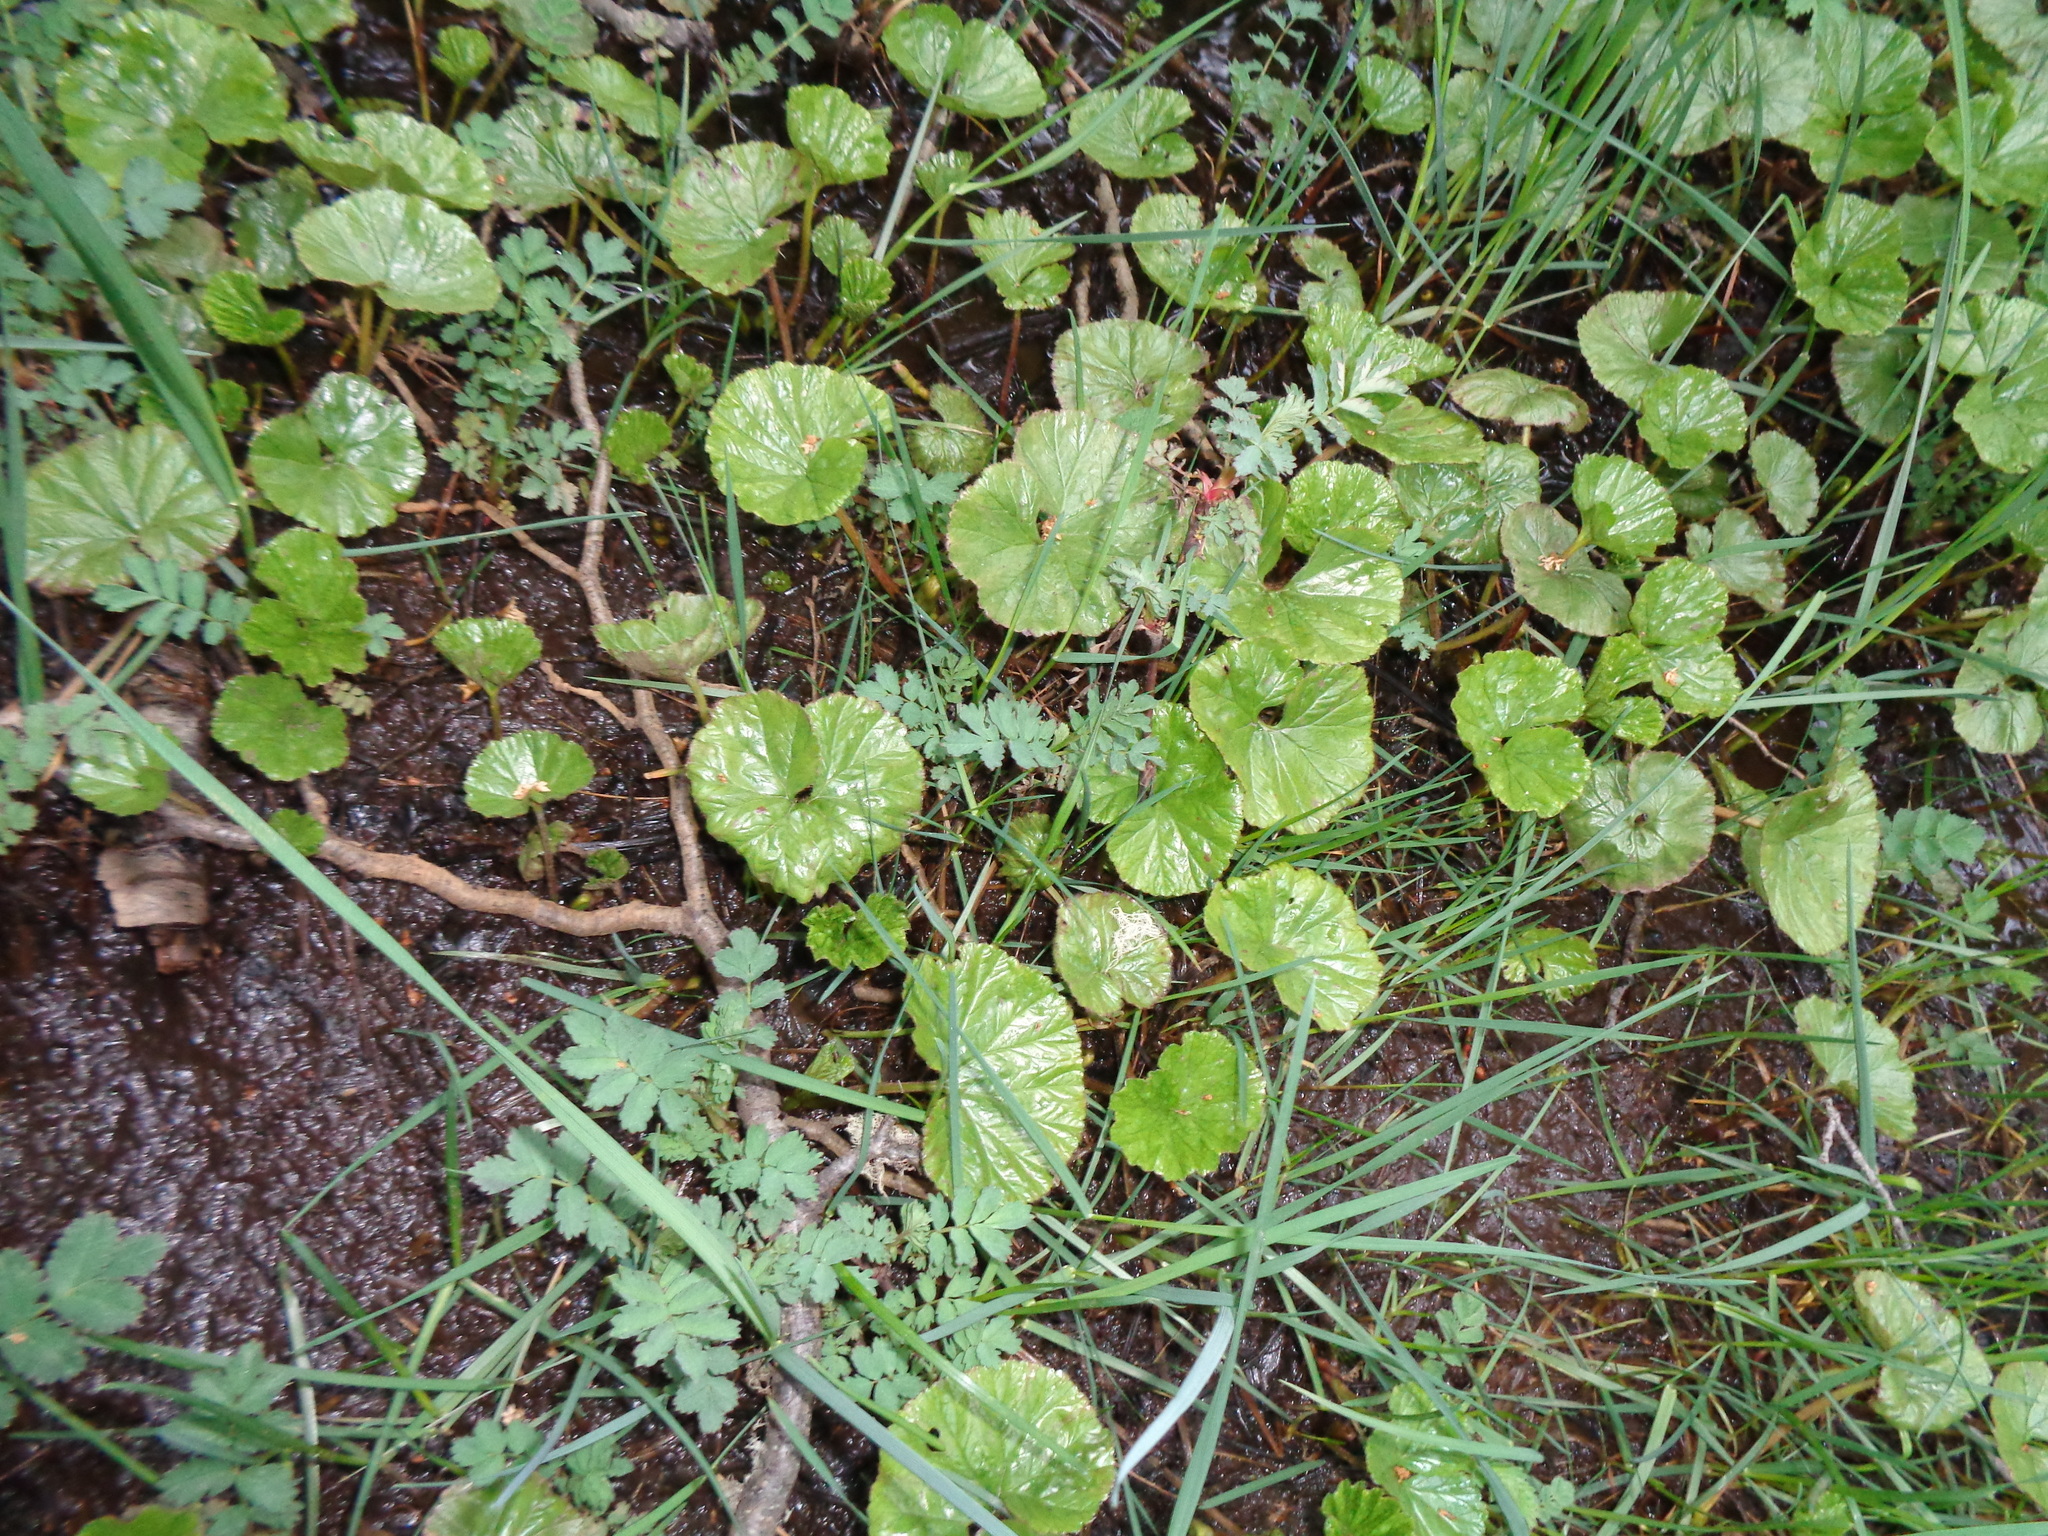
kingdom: Plantae
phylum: Tracheophyta
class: Magnoliopsida
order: Gunnerales
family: Gunneraceae
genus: Gunnera
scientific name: Gunnera magellanica
